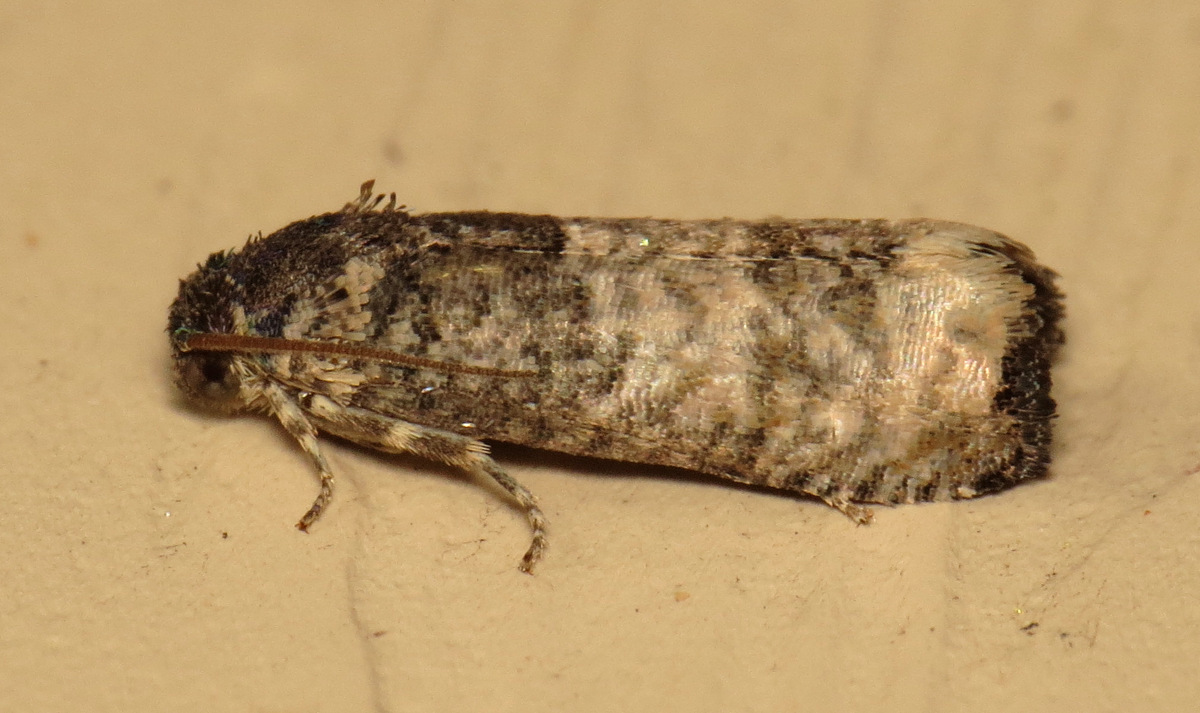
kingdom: Animalia
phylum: Arthropoda
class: Insecta
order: Lepidoptera
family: Tortricidae
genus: Epiblema
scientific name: Epiblema obfuscana
